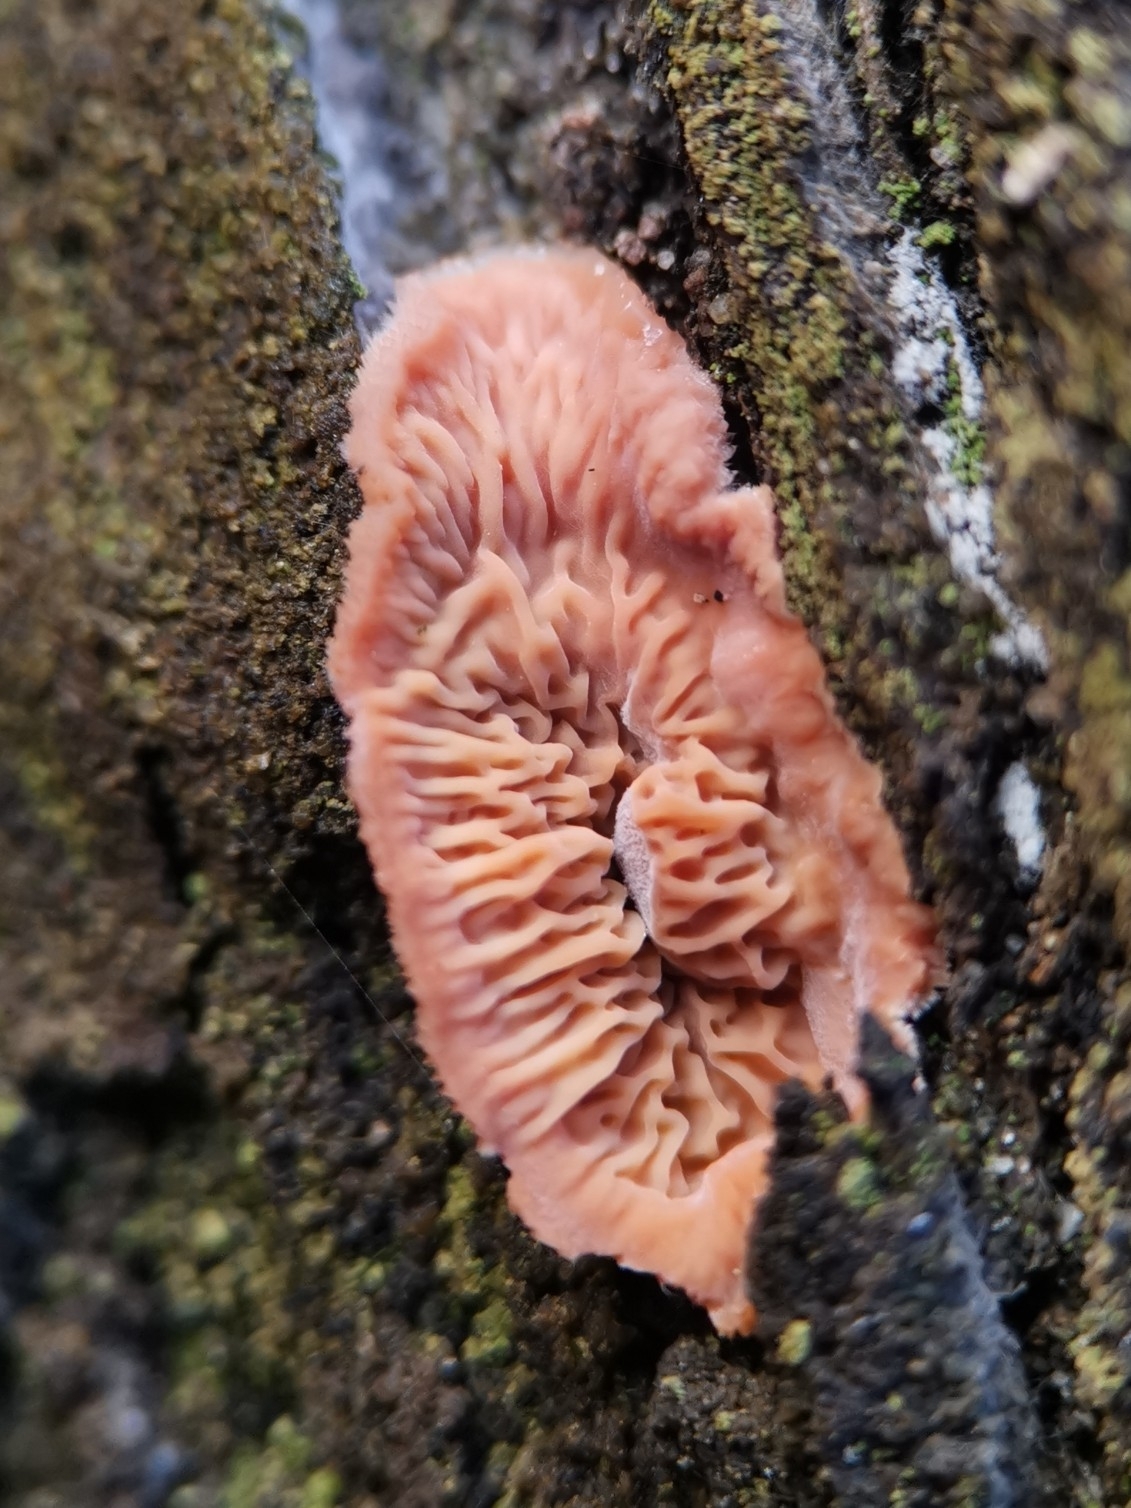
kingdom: Fungi
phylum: Basidiomycota
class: Agaricomycetes
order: Polyporales
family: Meruliaceae
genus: Phlebia
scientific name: Phlebia tremellosa
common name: Jelly rot
